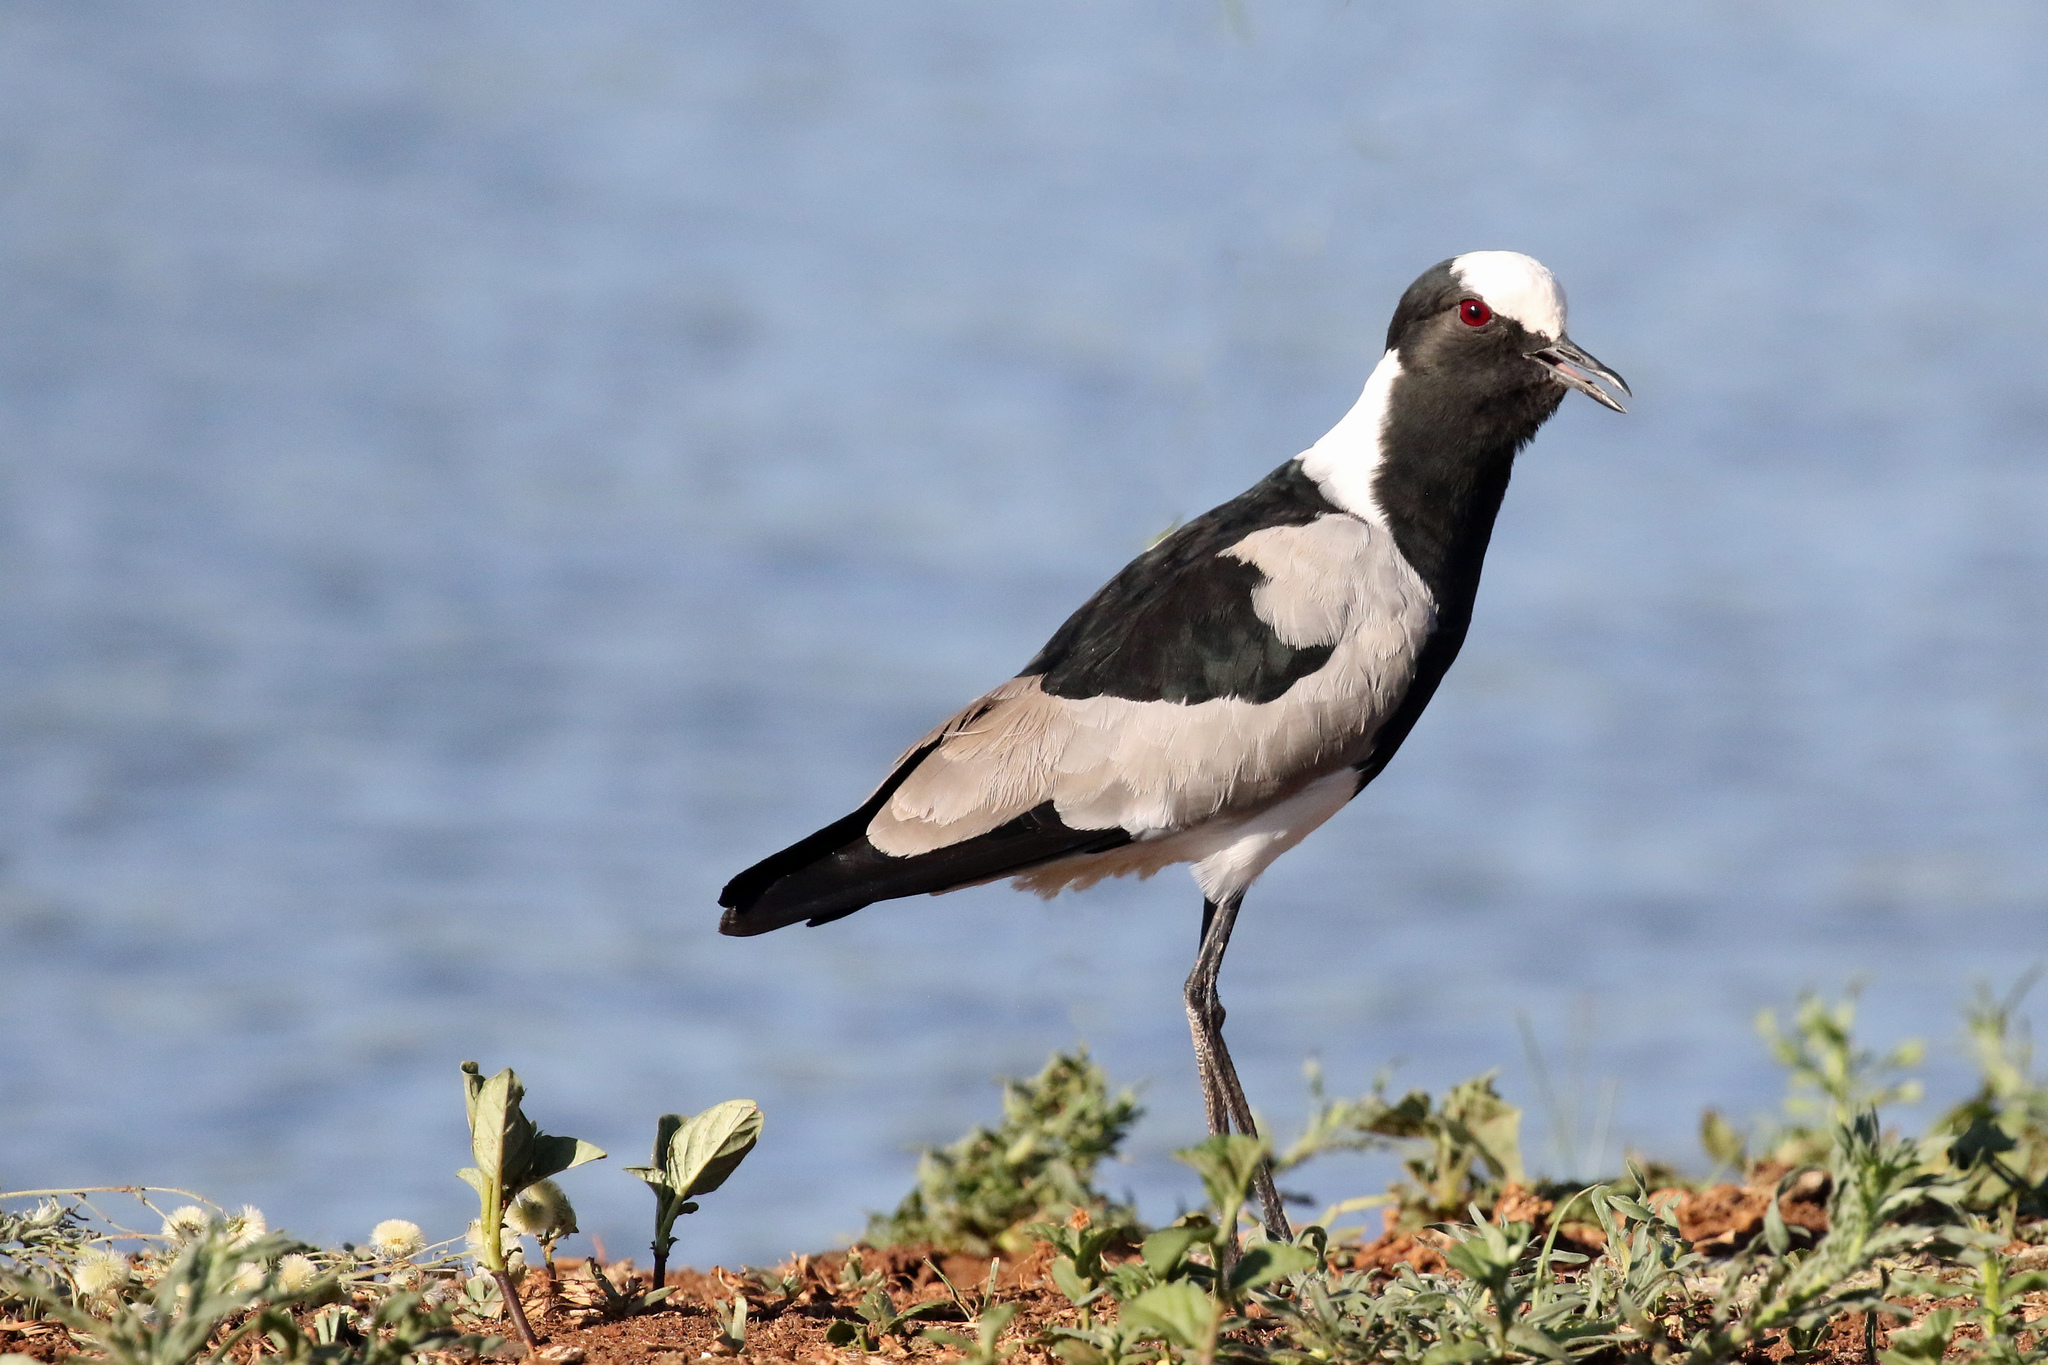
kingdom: Animalia
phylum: Chordata
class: Aves
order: Charadriiformes
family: Charadriidae
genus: Vanellus
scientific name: Vanellus armatus
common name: Blacksmith lapwing
